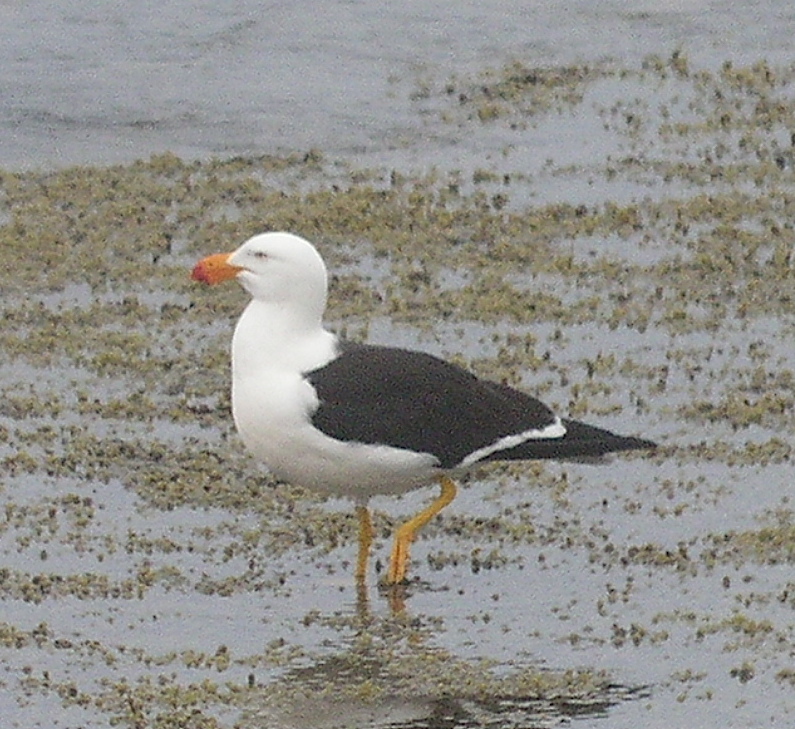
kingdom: Animalia
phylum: Chordata
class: Aves
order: Charadriiformes
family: Laridae
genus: Larus
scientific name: Larus pacificus
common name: Pacific gull
